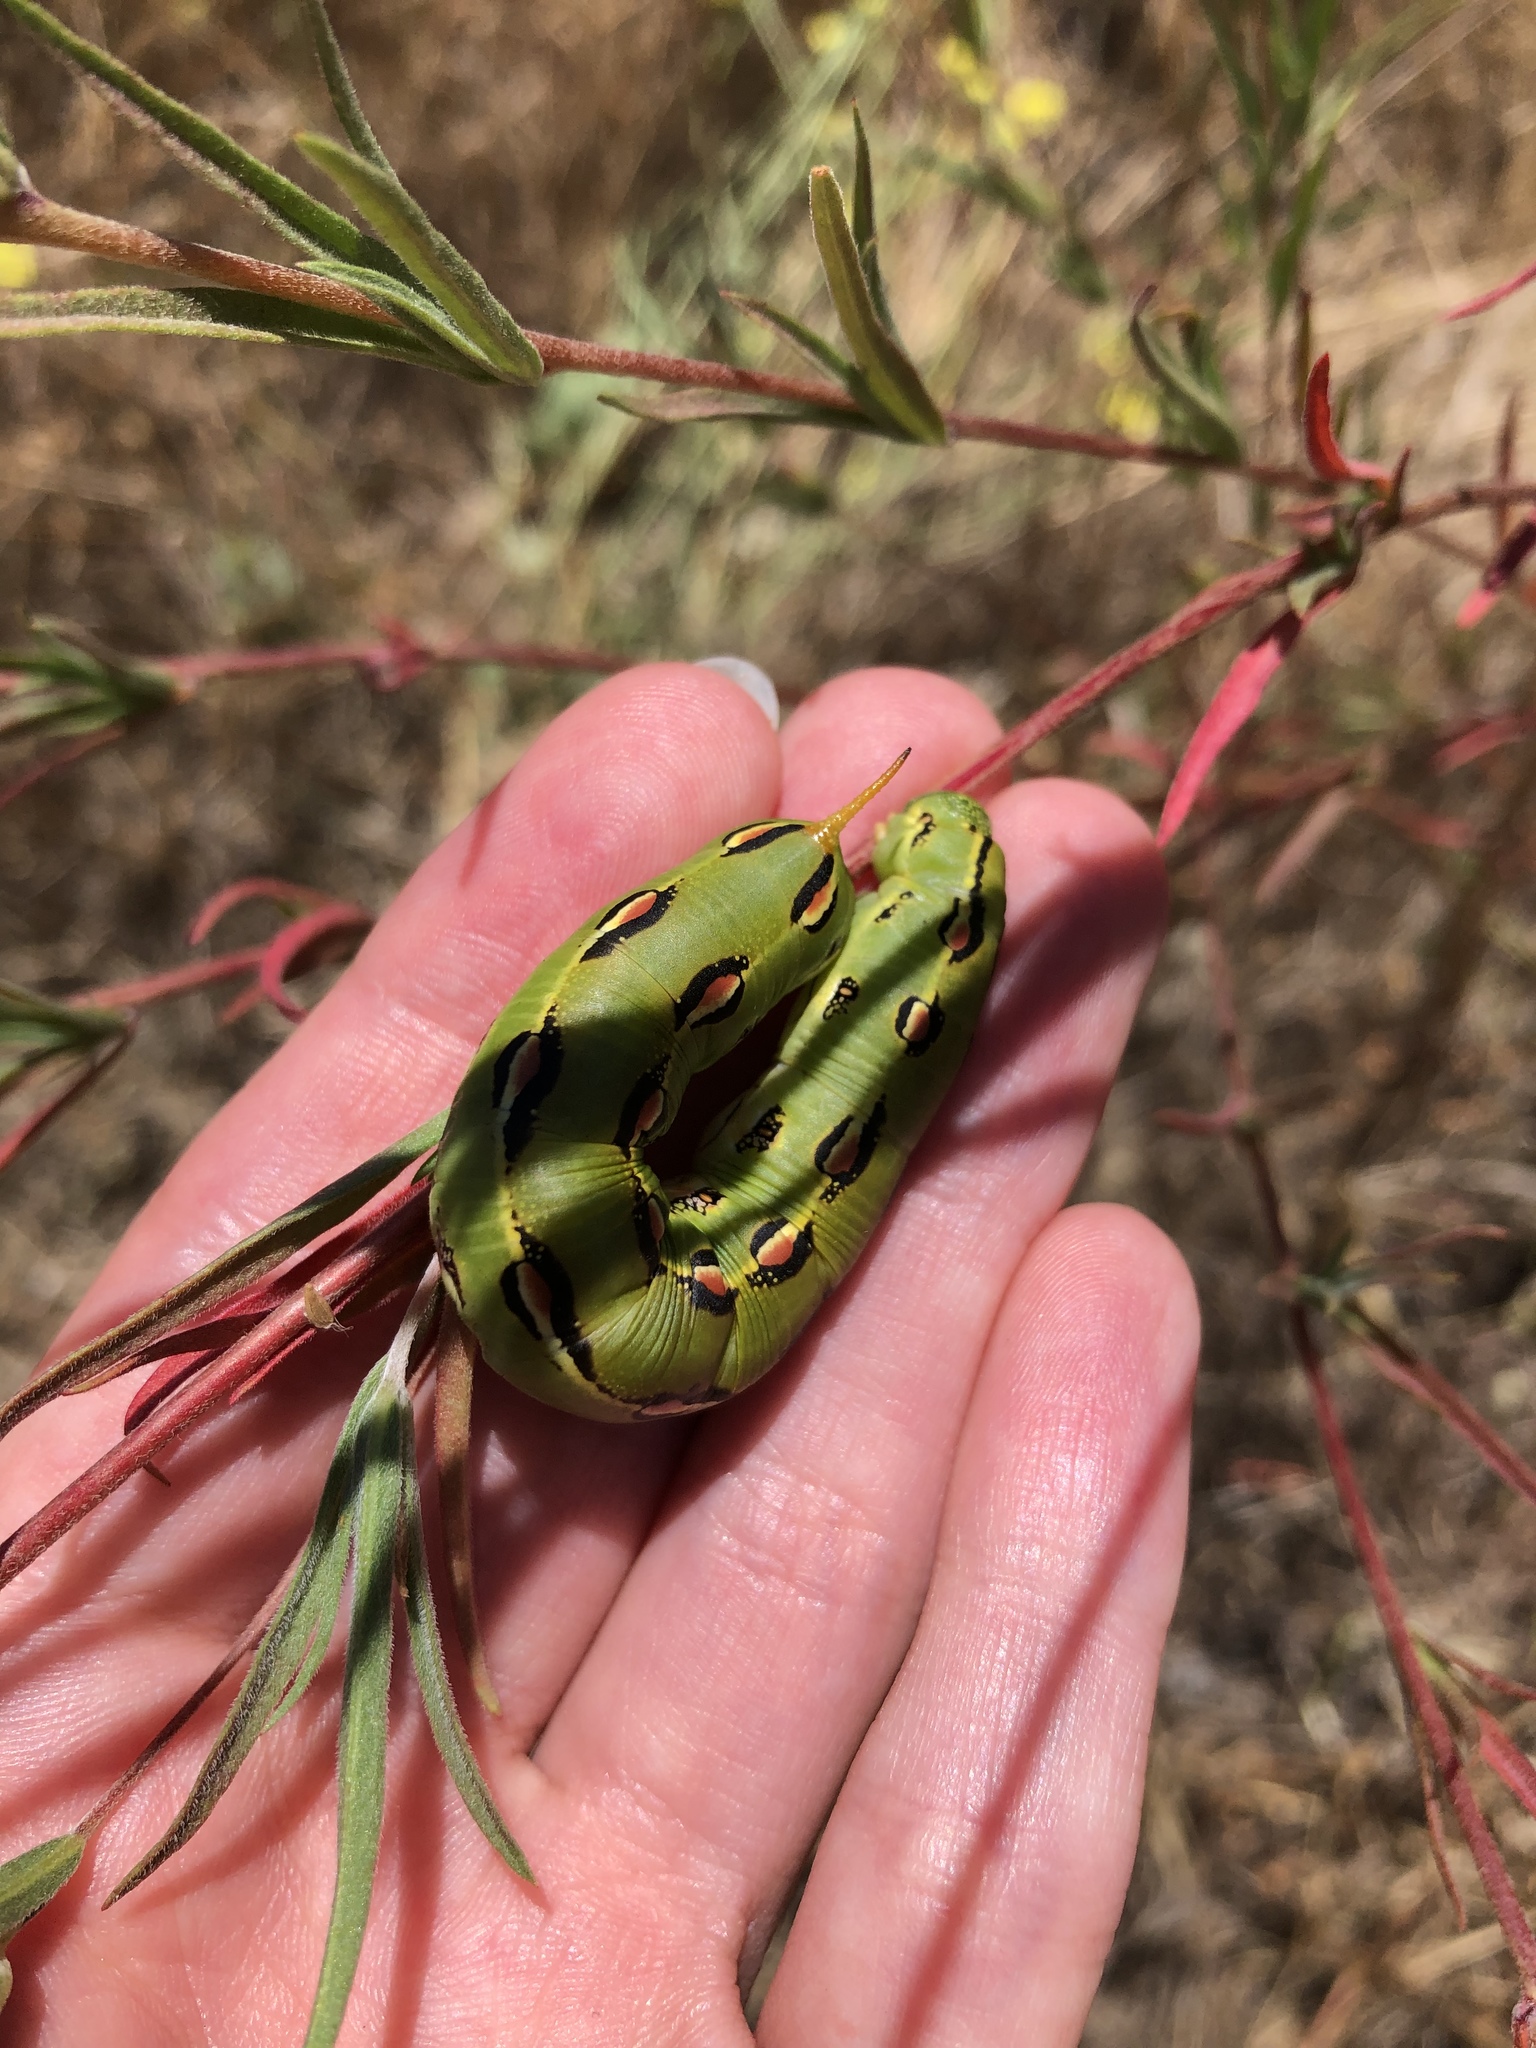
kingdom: Animalia
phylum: Arthropoda
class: Insecta
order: Lepidoptera
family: Sphingidae
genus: Hyles
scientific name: Hyles lineata
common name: White-lined sphinx
